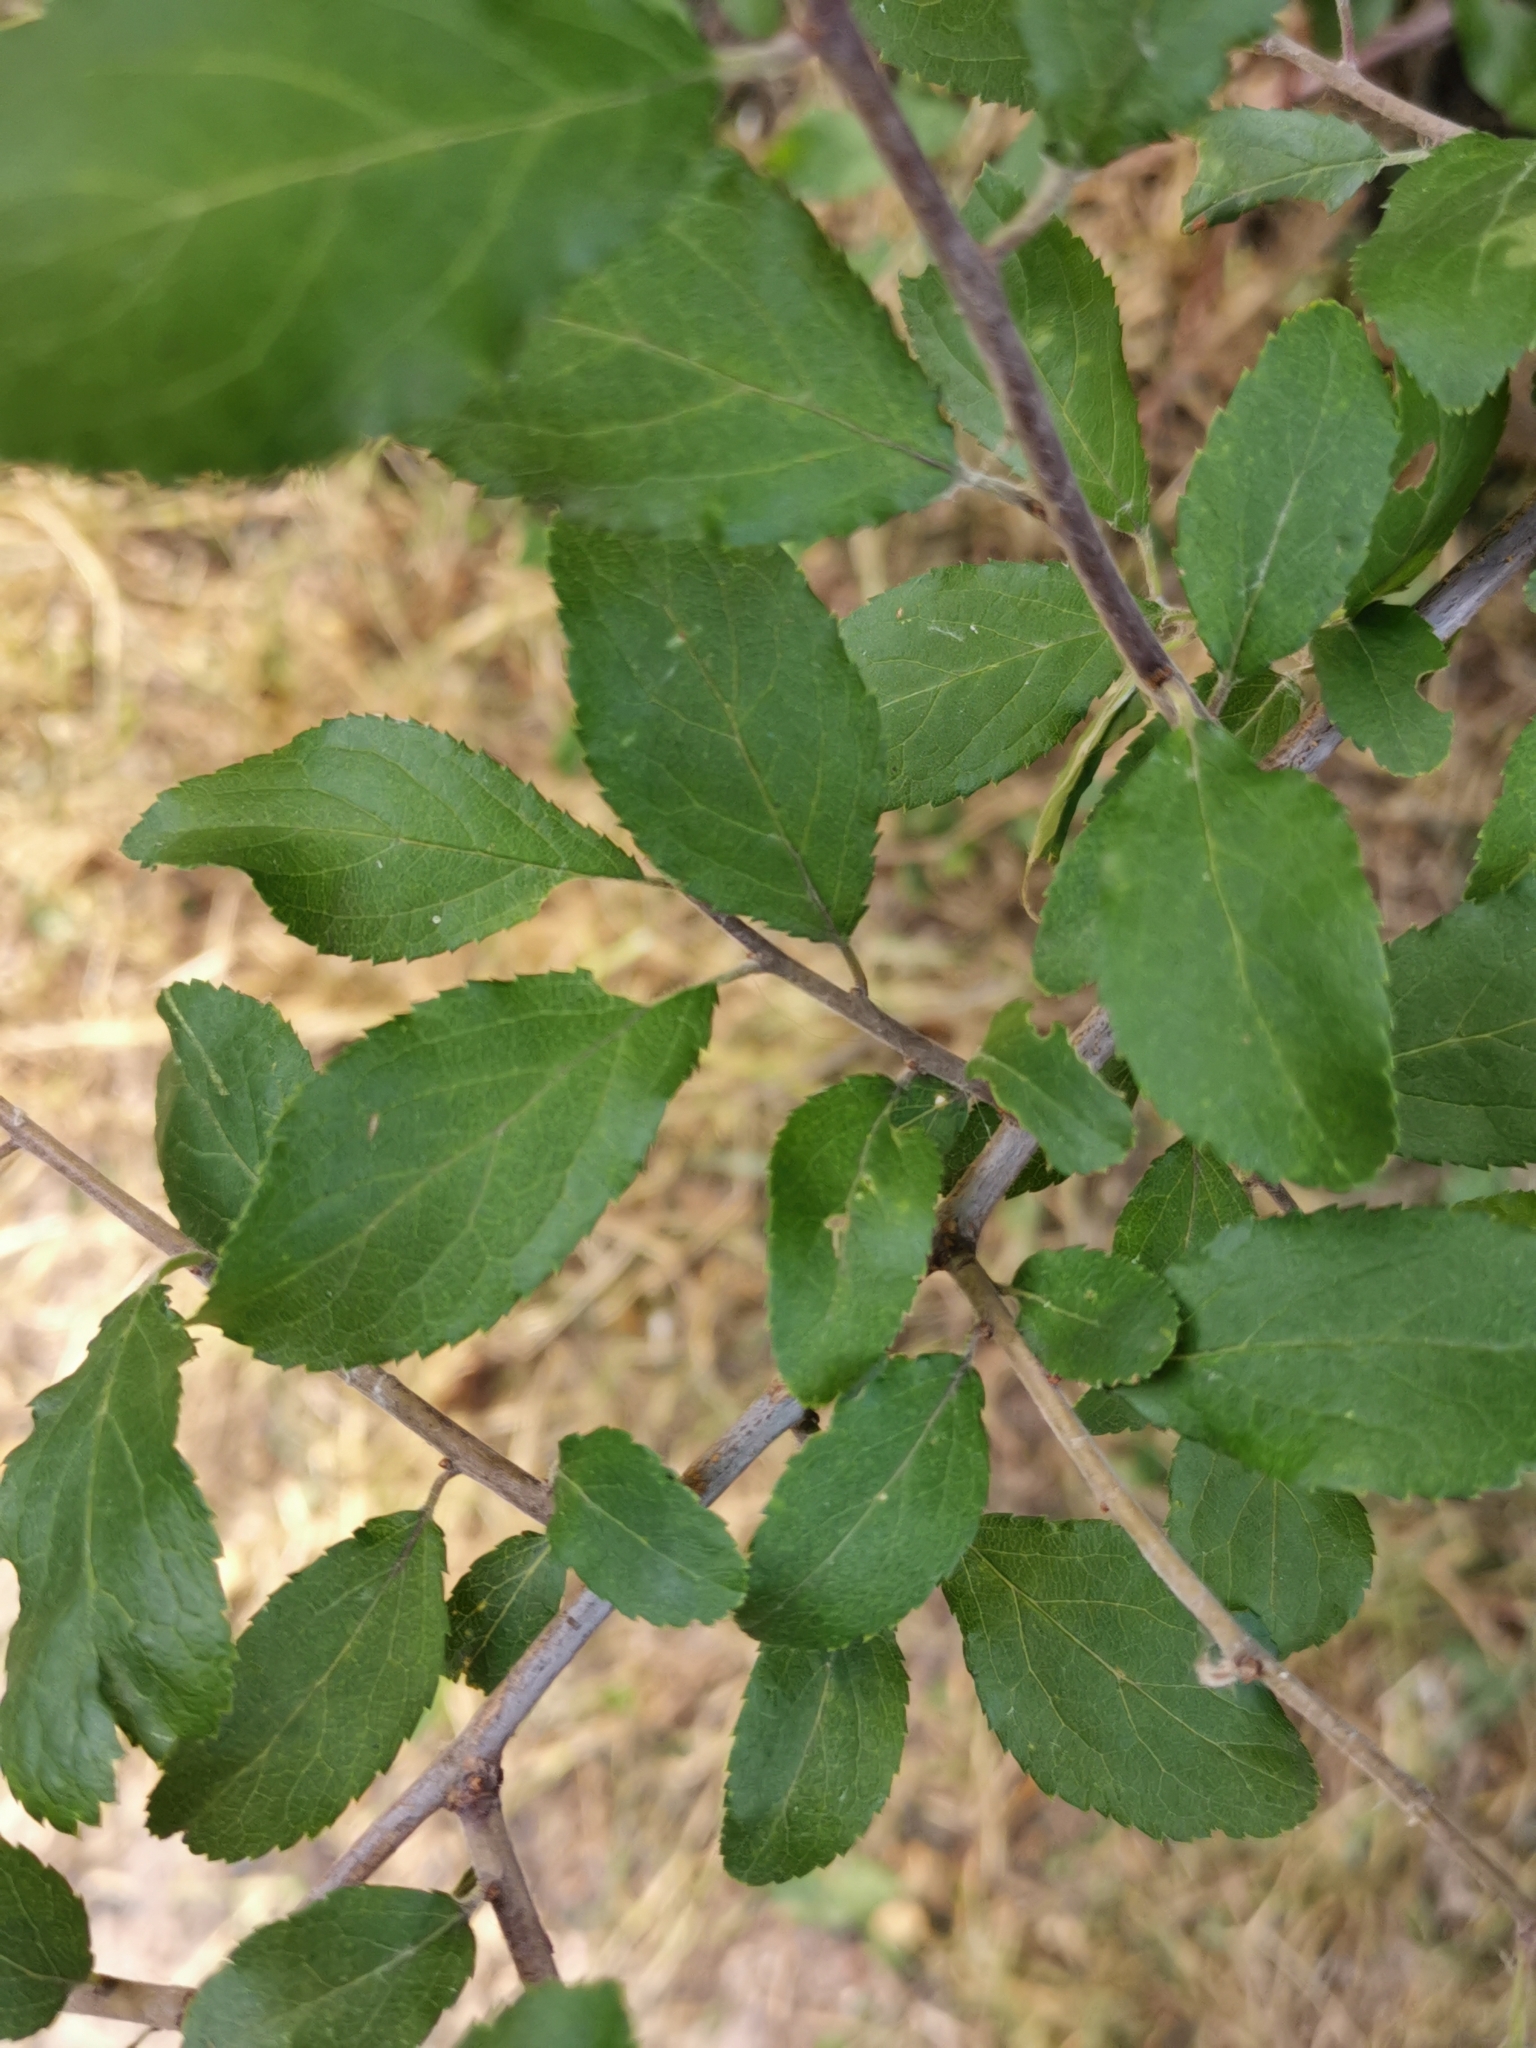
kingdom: Plantae
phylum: Tracheophyta
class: Magnoliopsida
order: Rosales
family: Rosaceae
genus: Prunus
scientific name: Prunus spinosa
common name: Blackthorn
